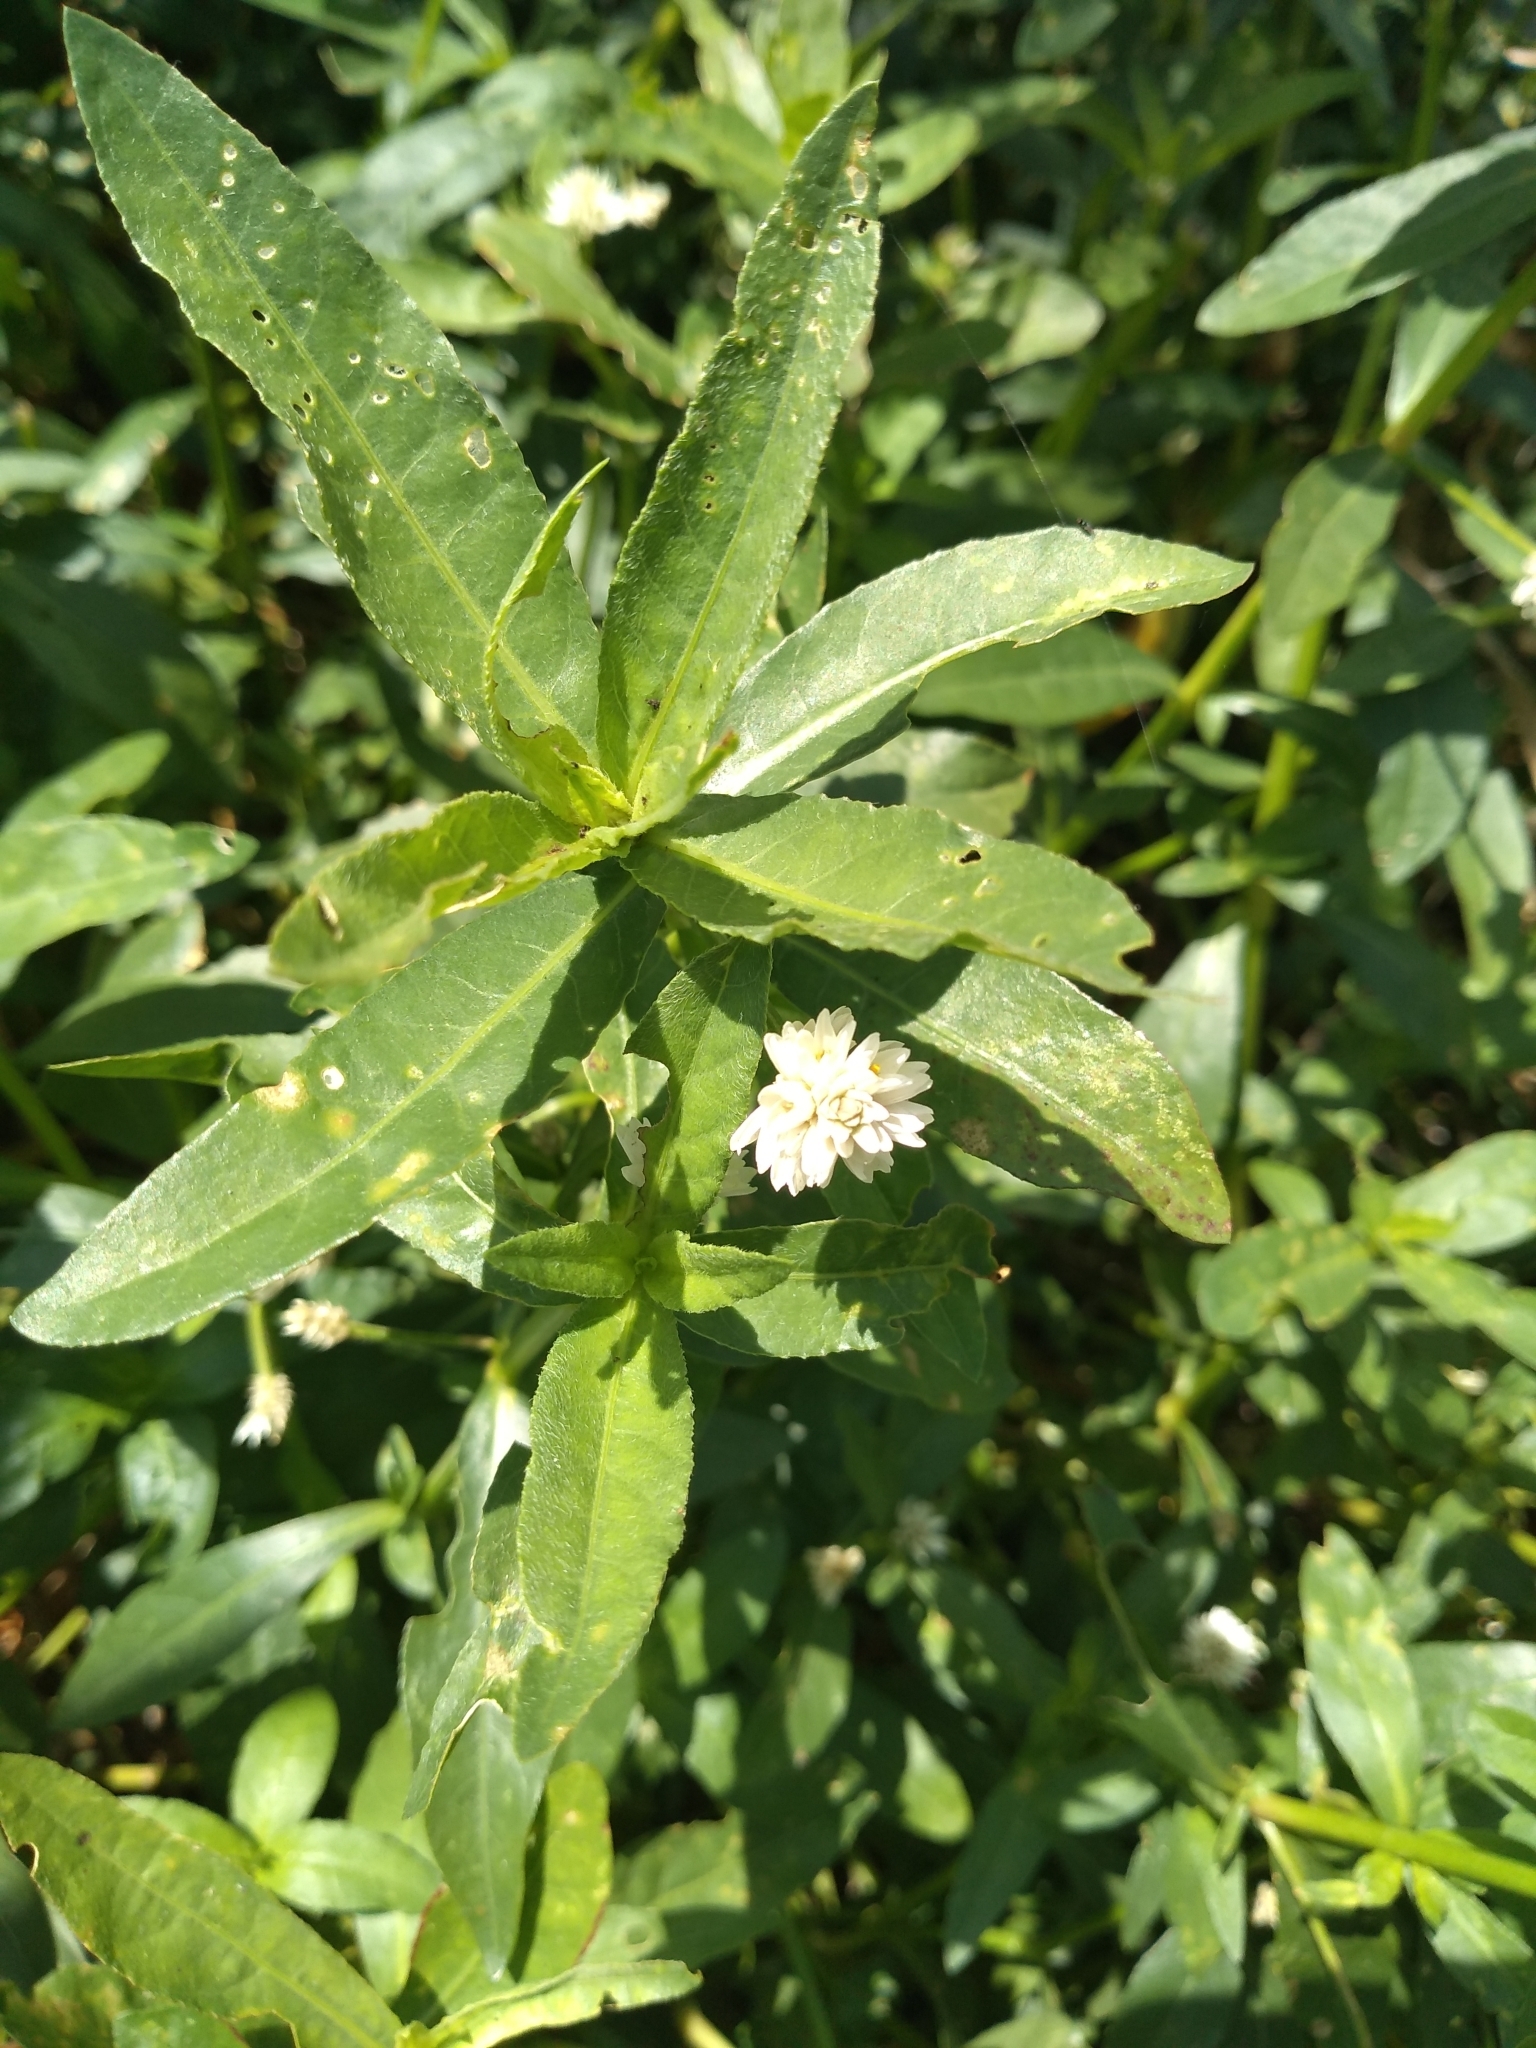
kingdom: Plantae
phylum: Tracheophyta
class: Magnoliopsida
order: Caryophyllales
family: Amaranthaceae
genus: Alternanthera
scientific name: Alternanthera philoxeroides
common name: Alligatorweed
